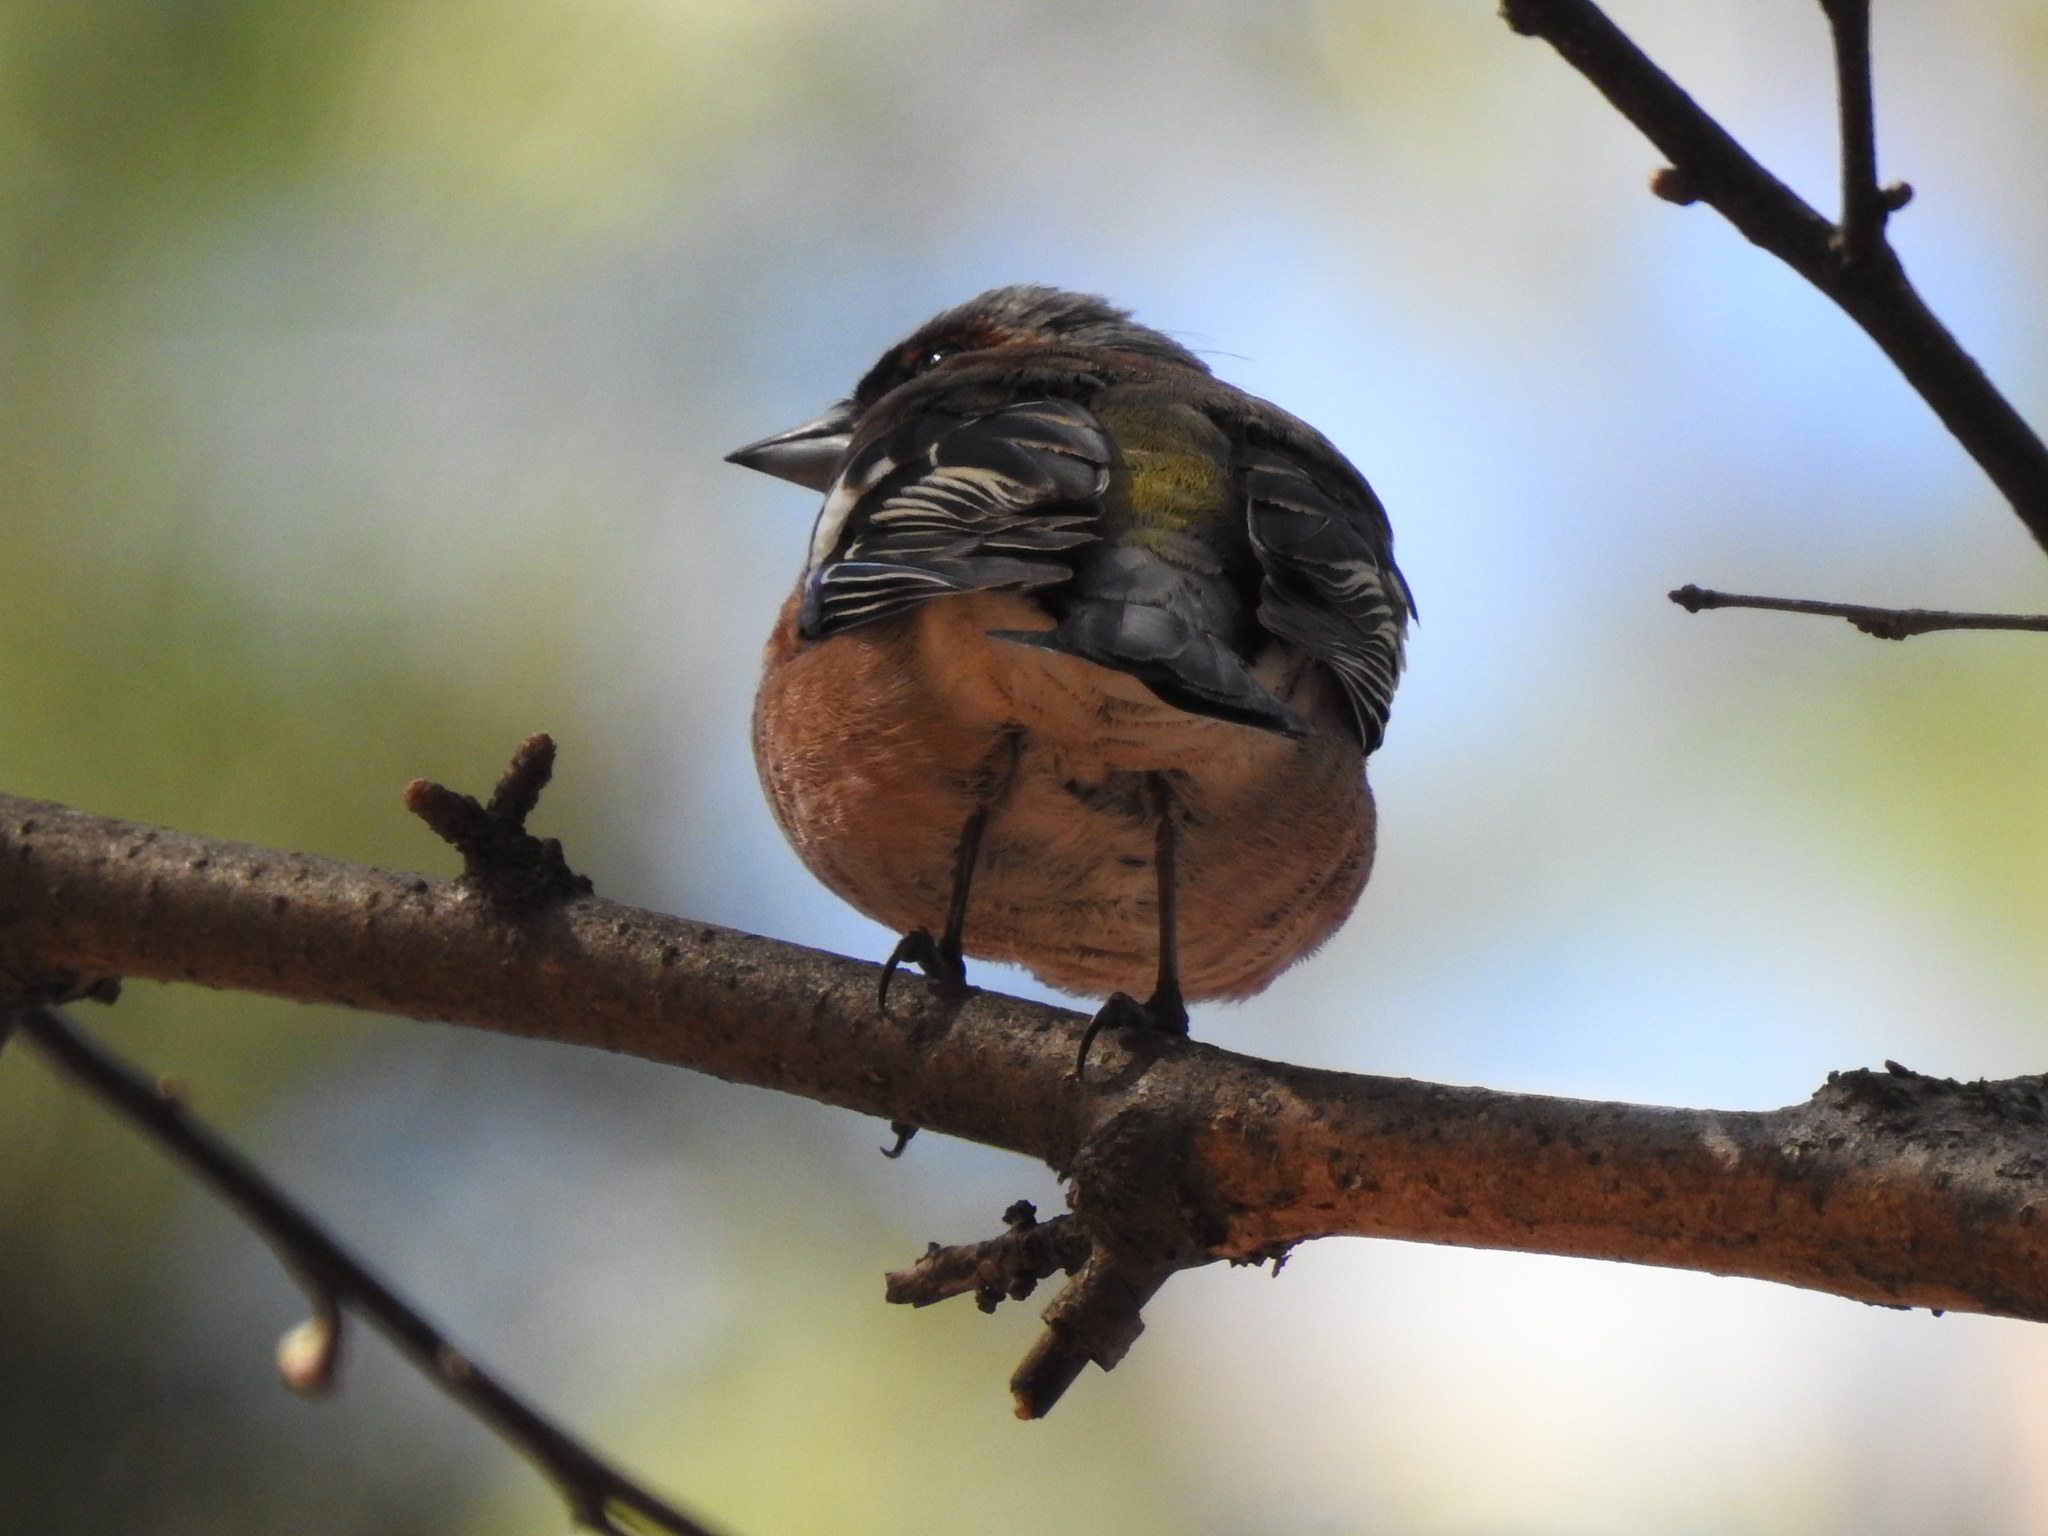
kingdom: Animalia
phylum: Chordata
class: Aves
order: Passeriformes
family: Fringillidae
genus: Fringilla
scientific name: Fringilla coelebs
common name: Common chaffinch
